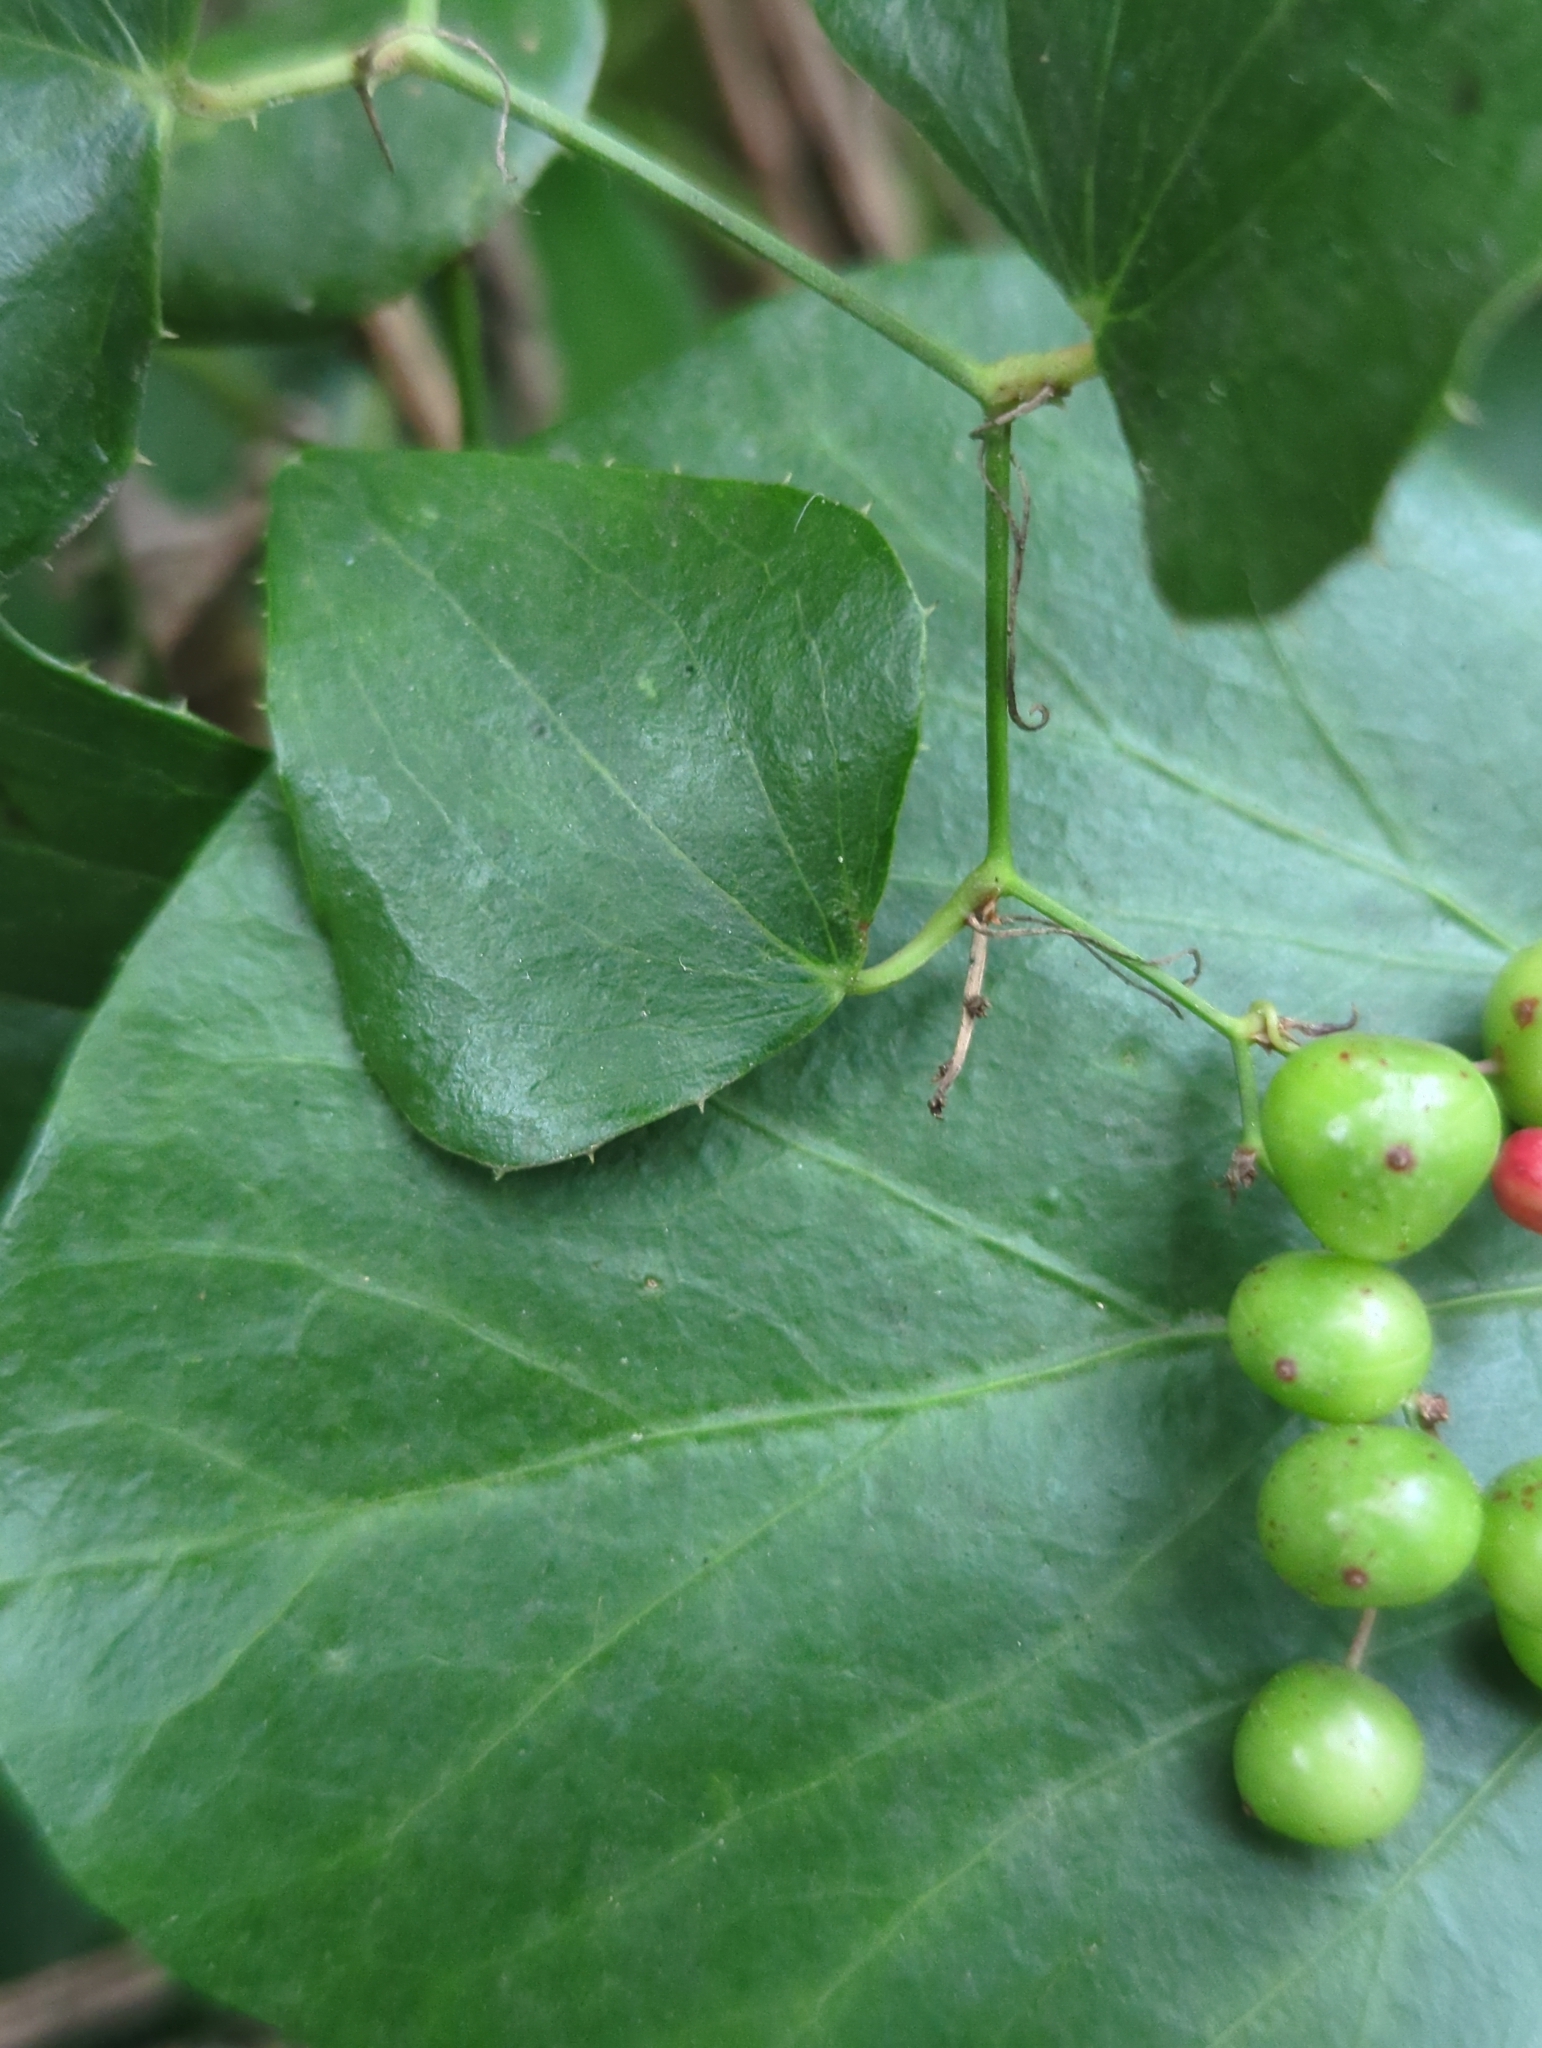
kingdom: Plantae
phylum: Tracheophyta
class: Liliopsida
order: Liliales
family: Smilacaceae
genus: Smilax
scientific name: Smilax aspera
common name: Common smilax
